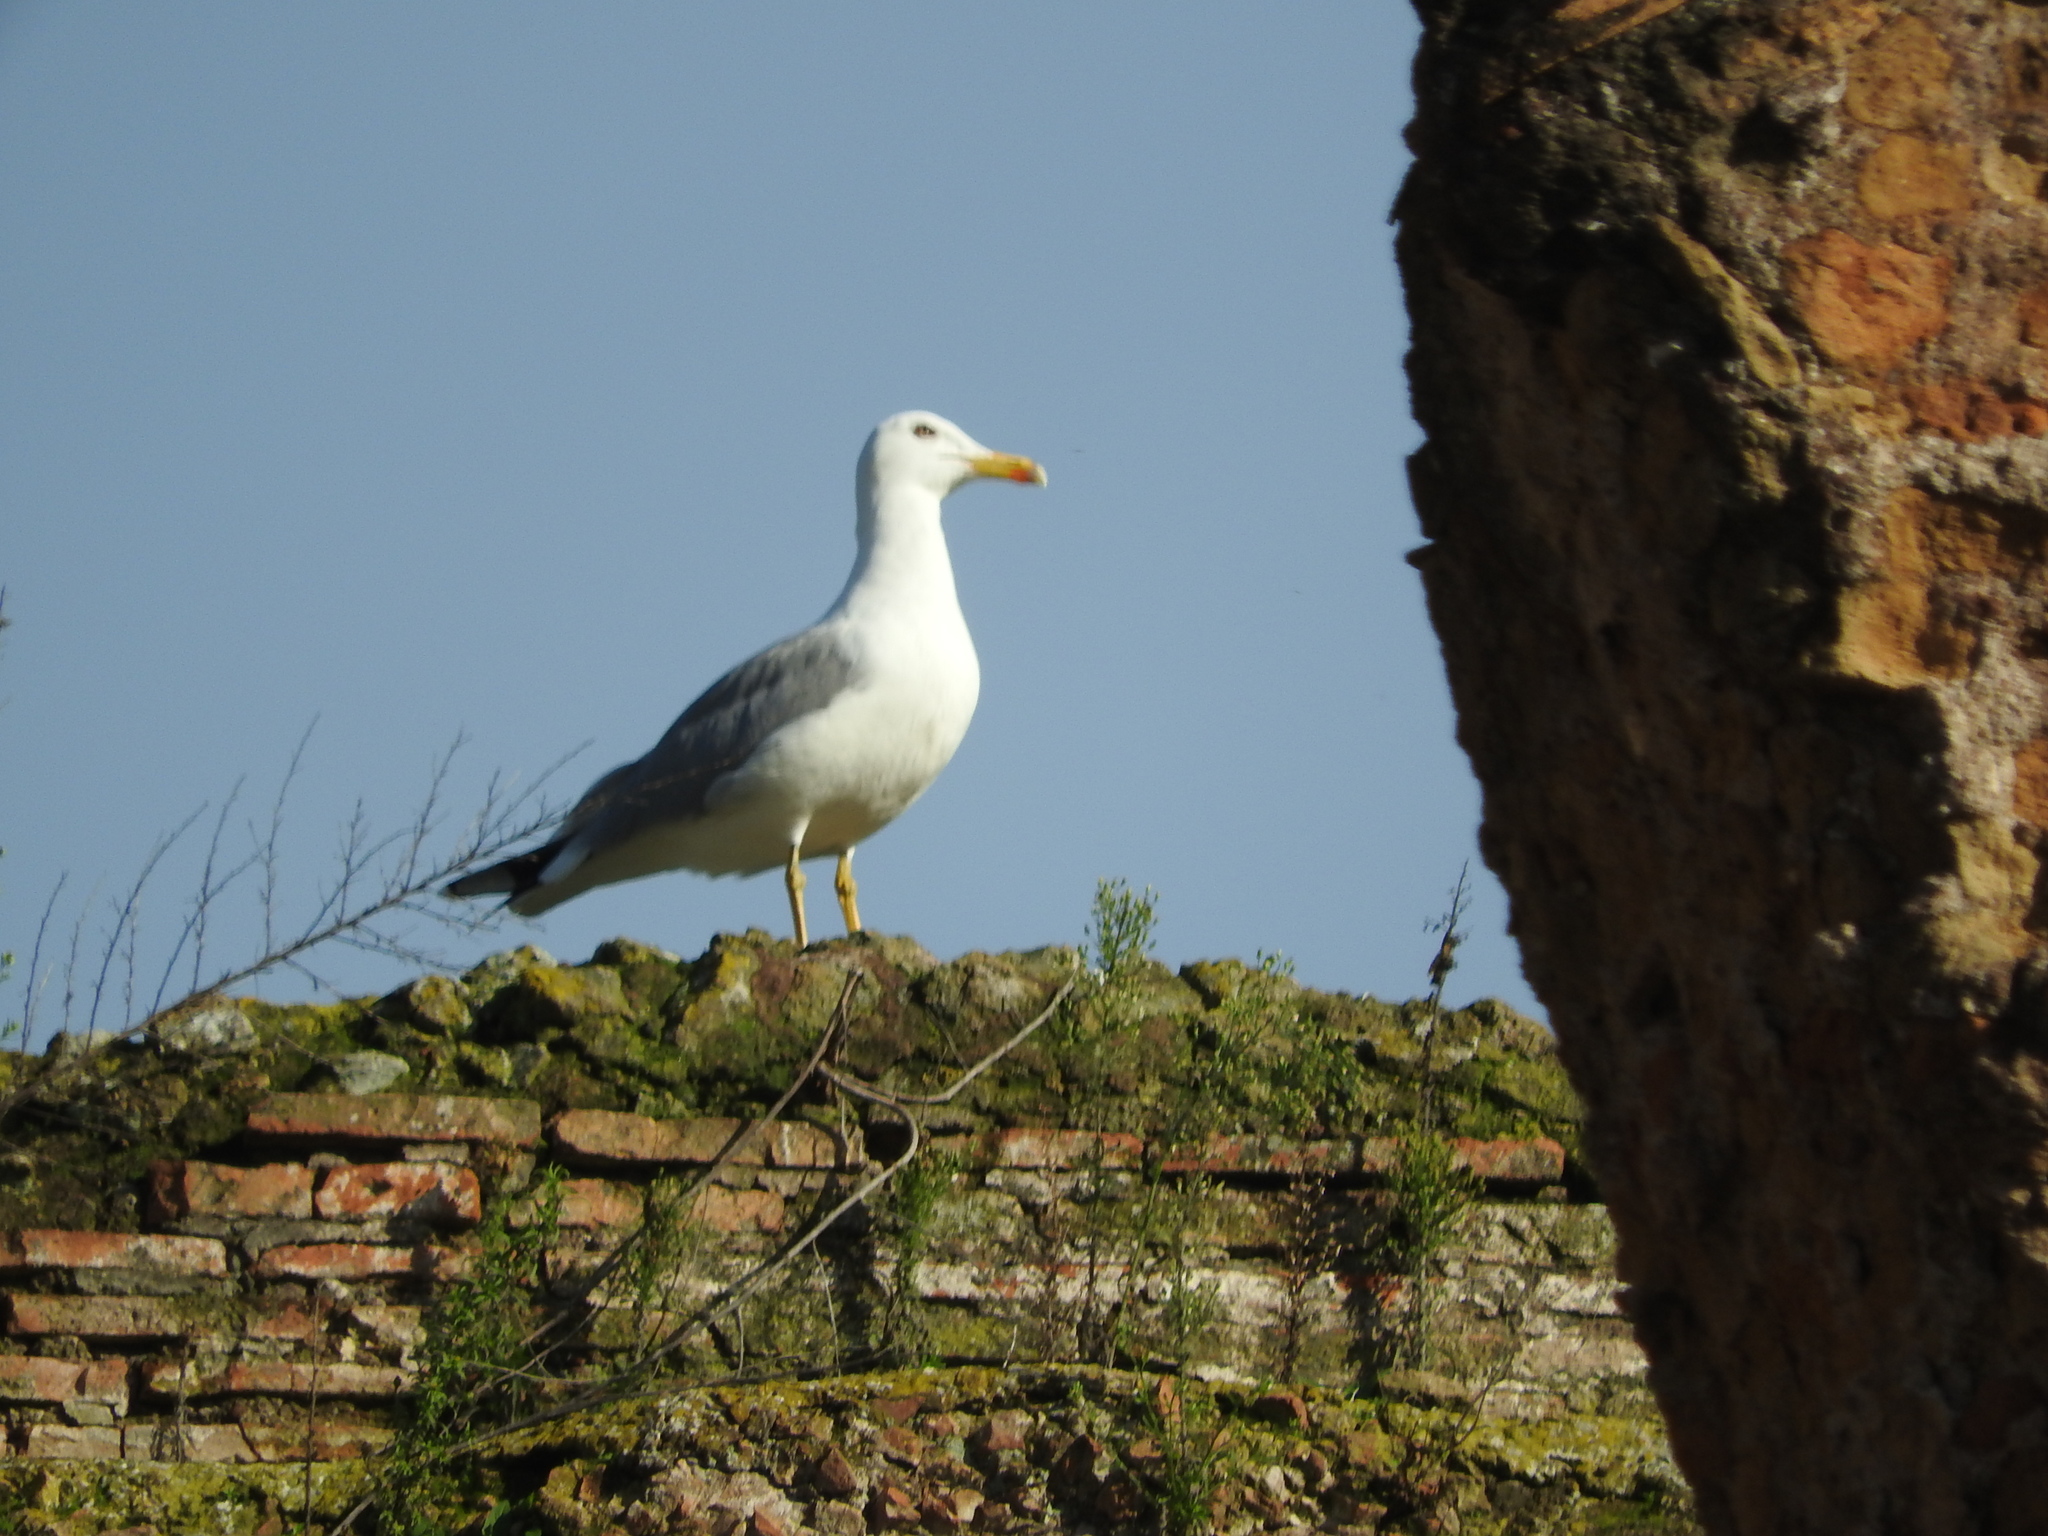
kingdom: Animalia
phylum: Chordata
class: Aves
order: Charadriiformes
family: Laridae
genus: Larus
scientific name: Larus michahellis
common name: Yellow-legged gull
